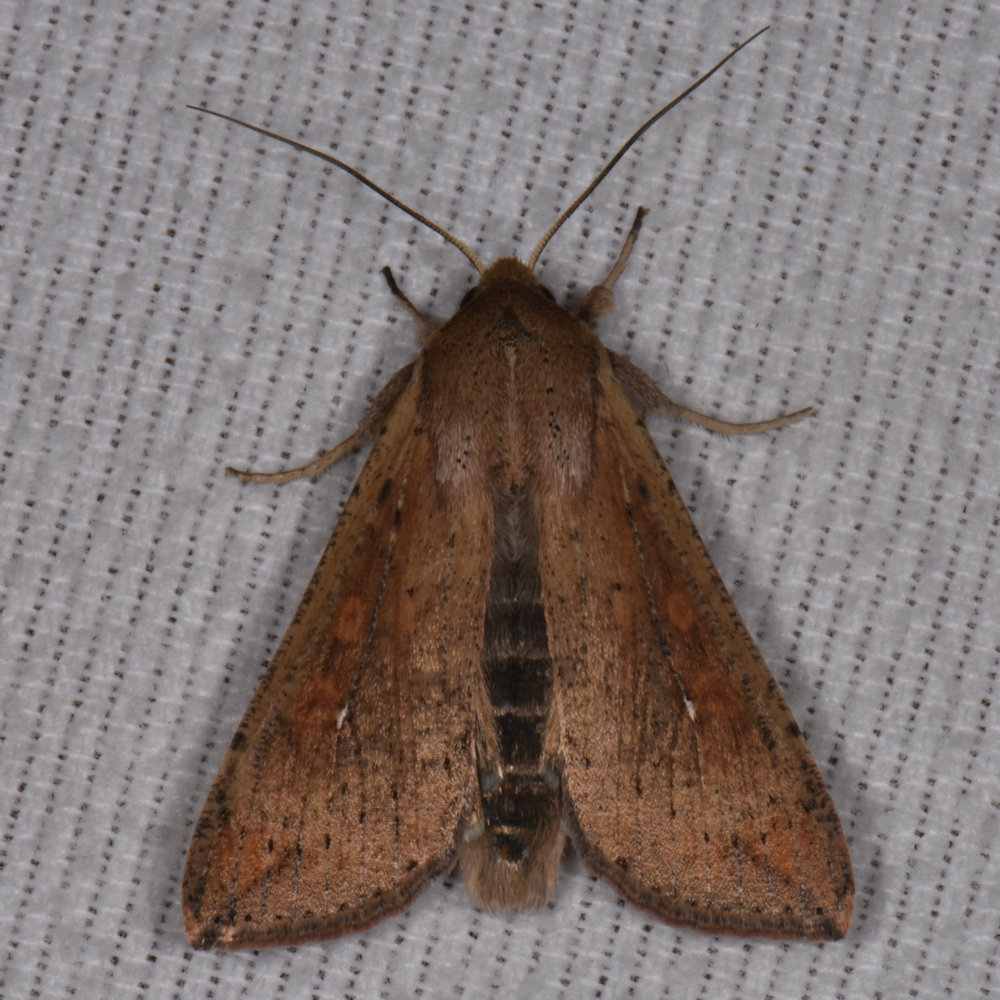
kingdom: Animalia
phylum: Arthropoda
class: Insecta
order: Lepidoptera
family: Noctuidae
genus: Mythimna
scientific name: Mythimna unipuncta
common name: White-speck
